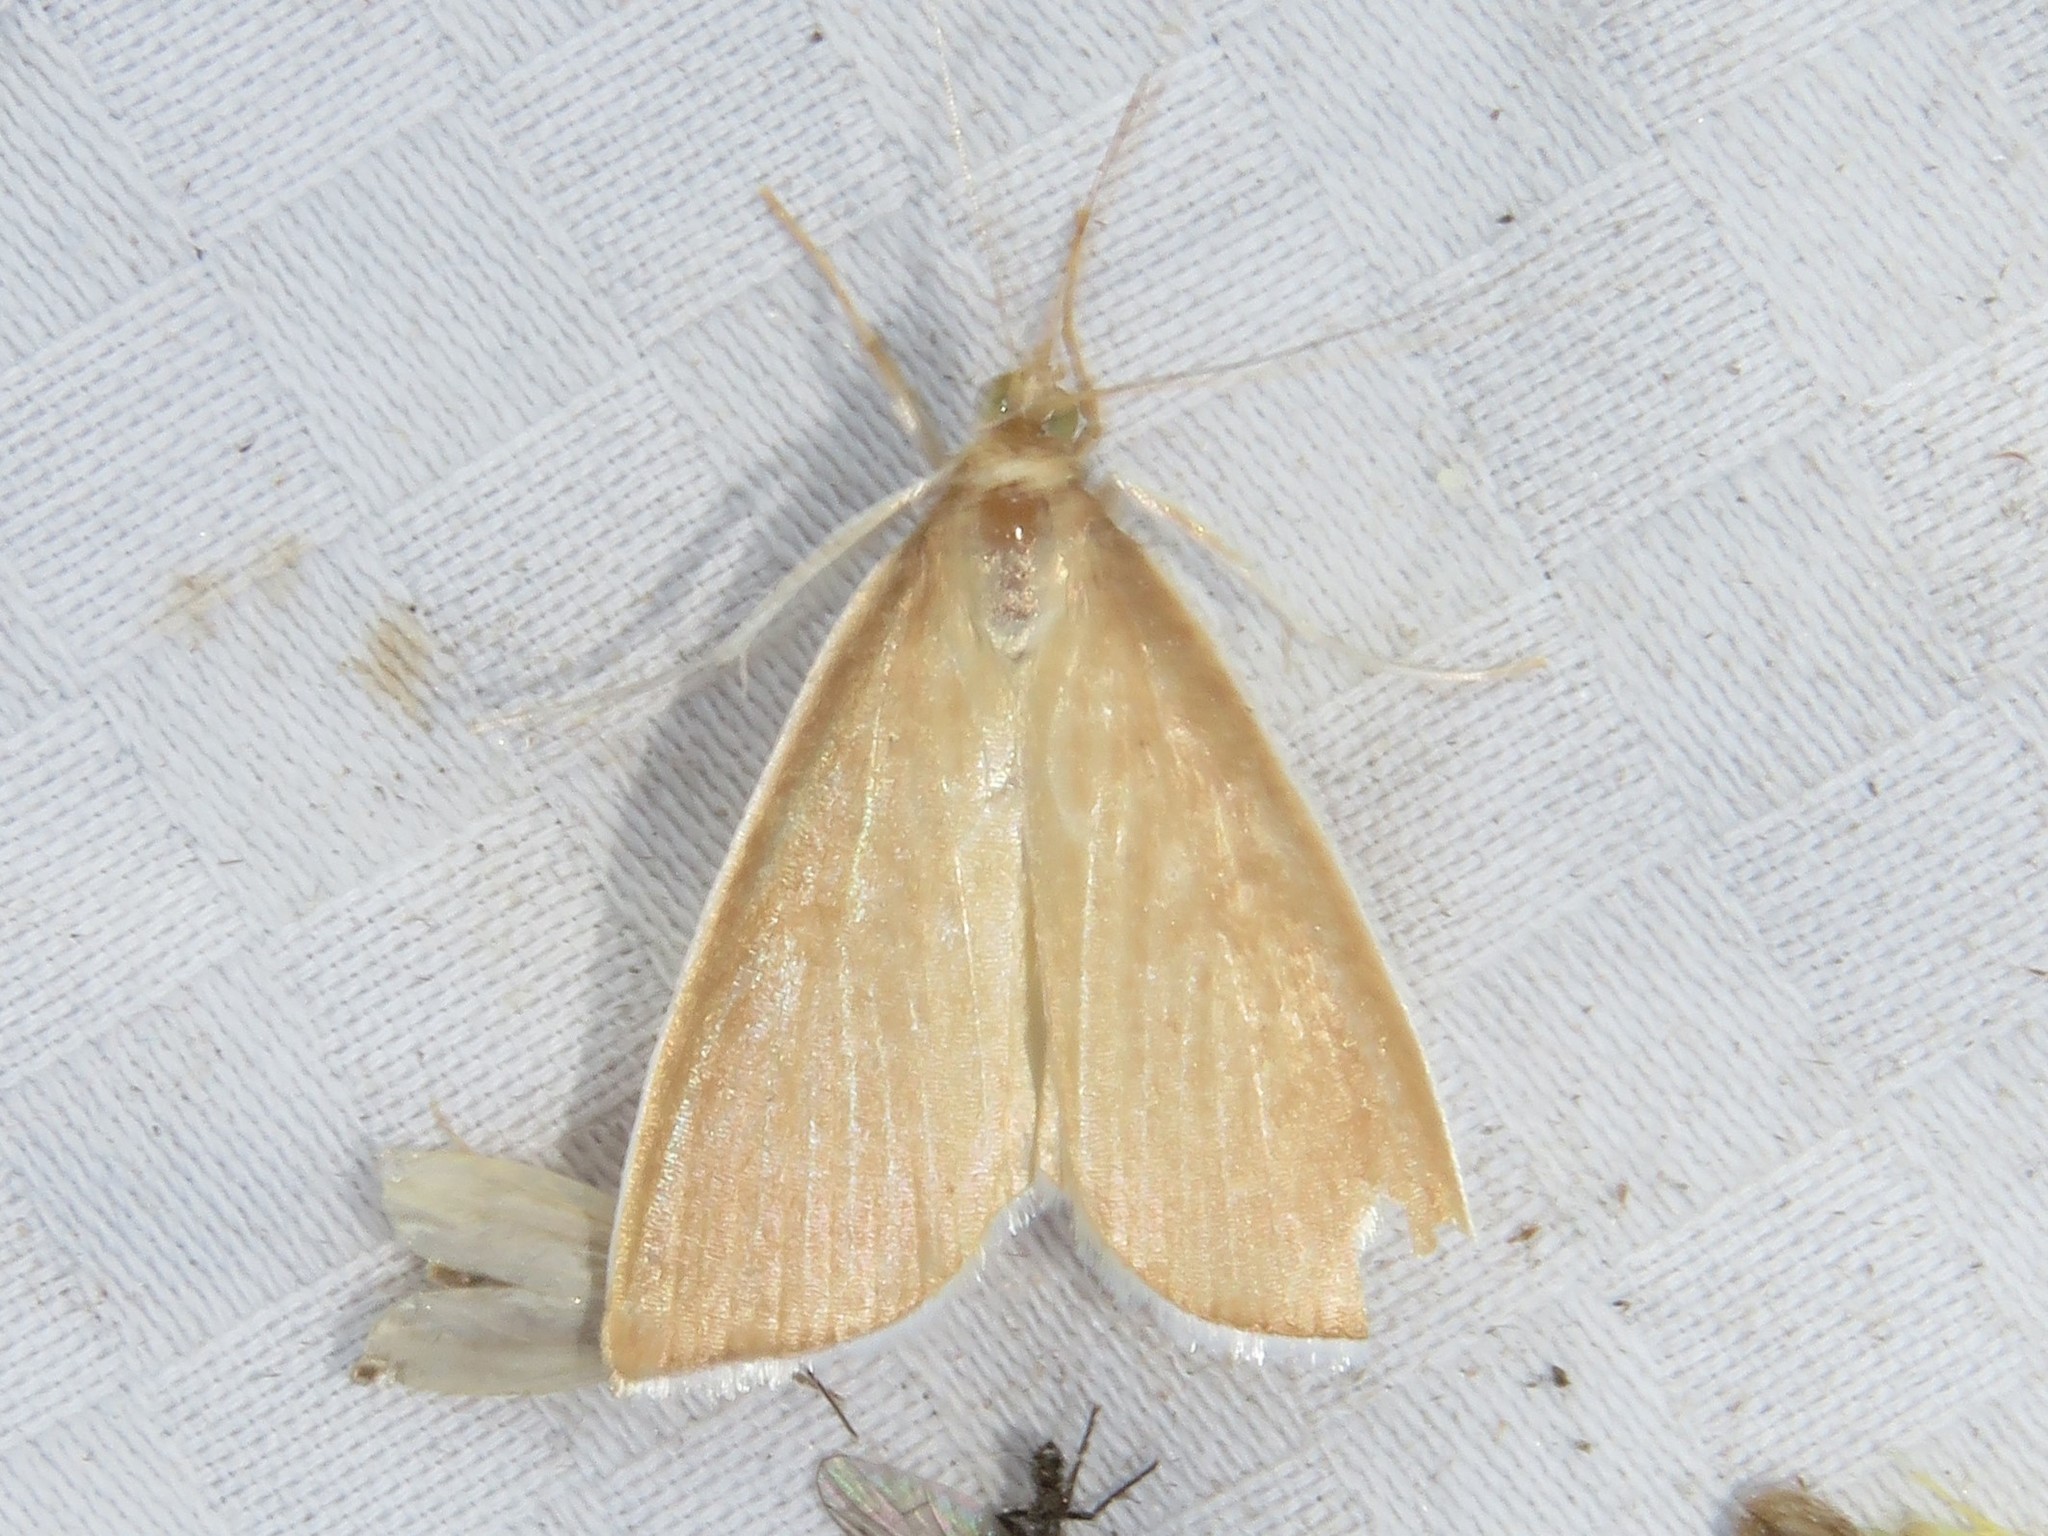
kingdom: Animalia
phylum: Arthropoda
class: Insecta
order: Lepidoptera
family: Crambidae
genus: Calamochrous
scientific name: Calamochrous Sclerocona acutella
